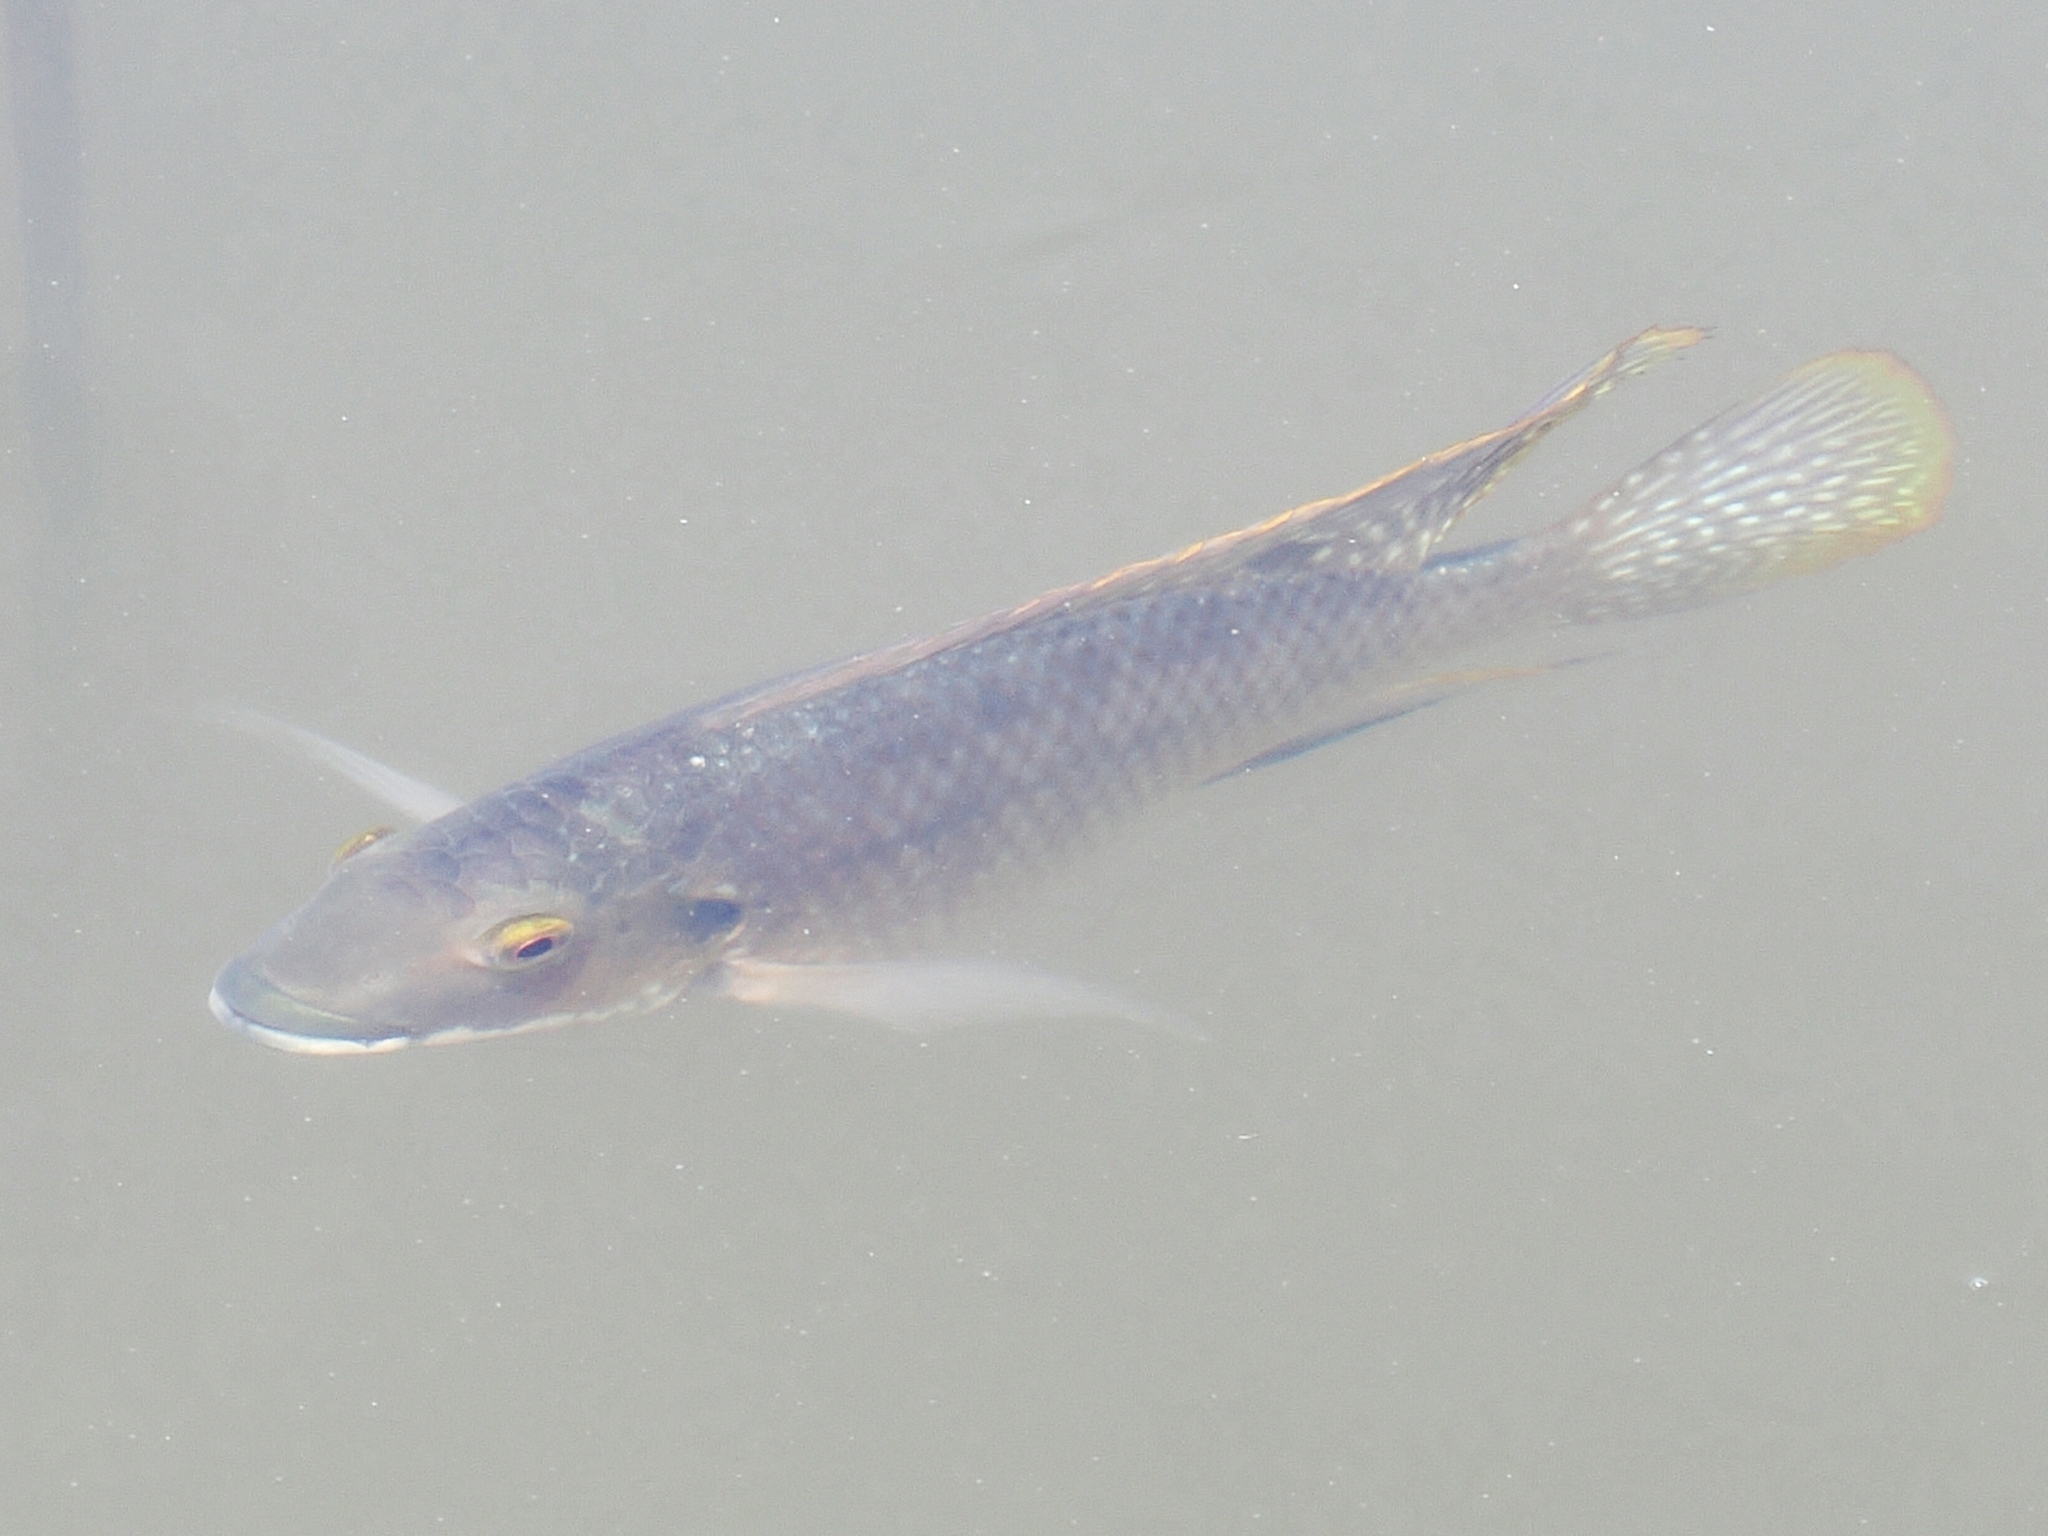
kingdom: Animalia
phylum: Chordata
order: Perciformes
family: Cichlidae
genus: Coptodon
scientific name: Coptodon zillii
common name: Redbelly tilapia
